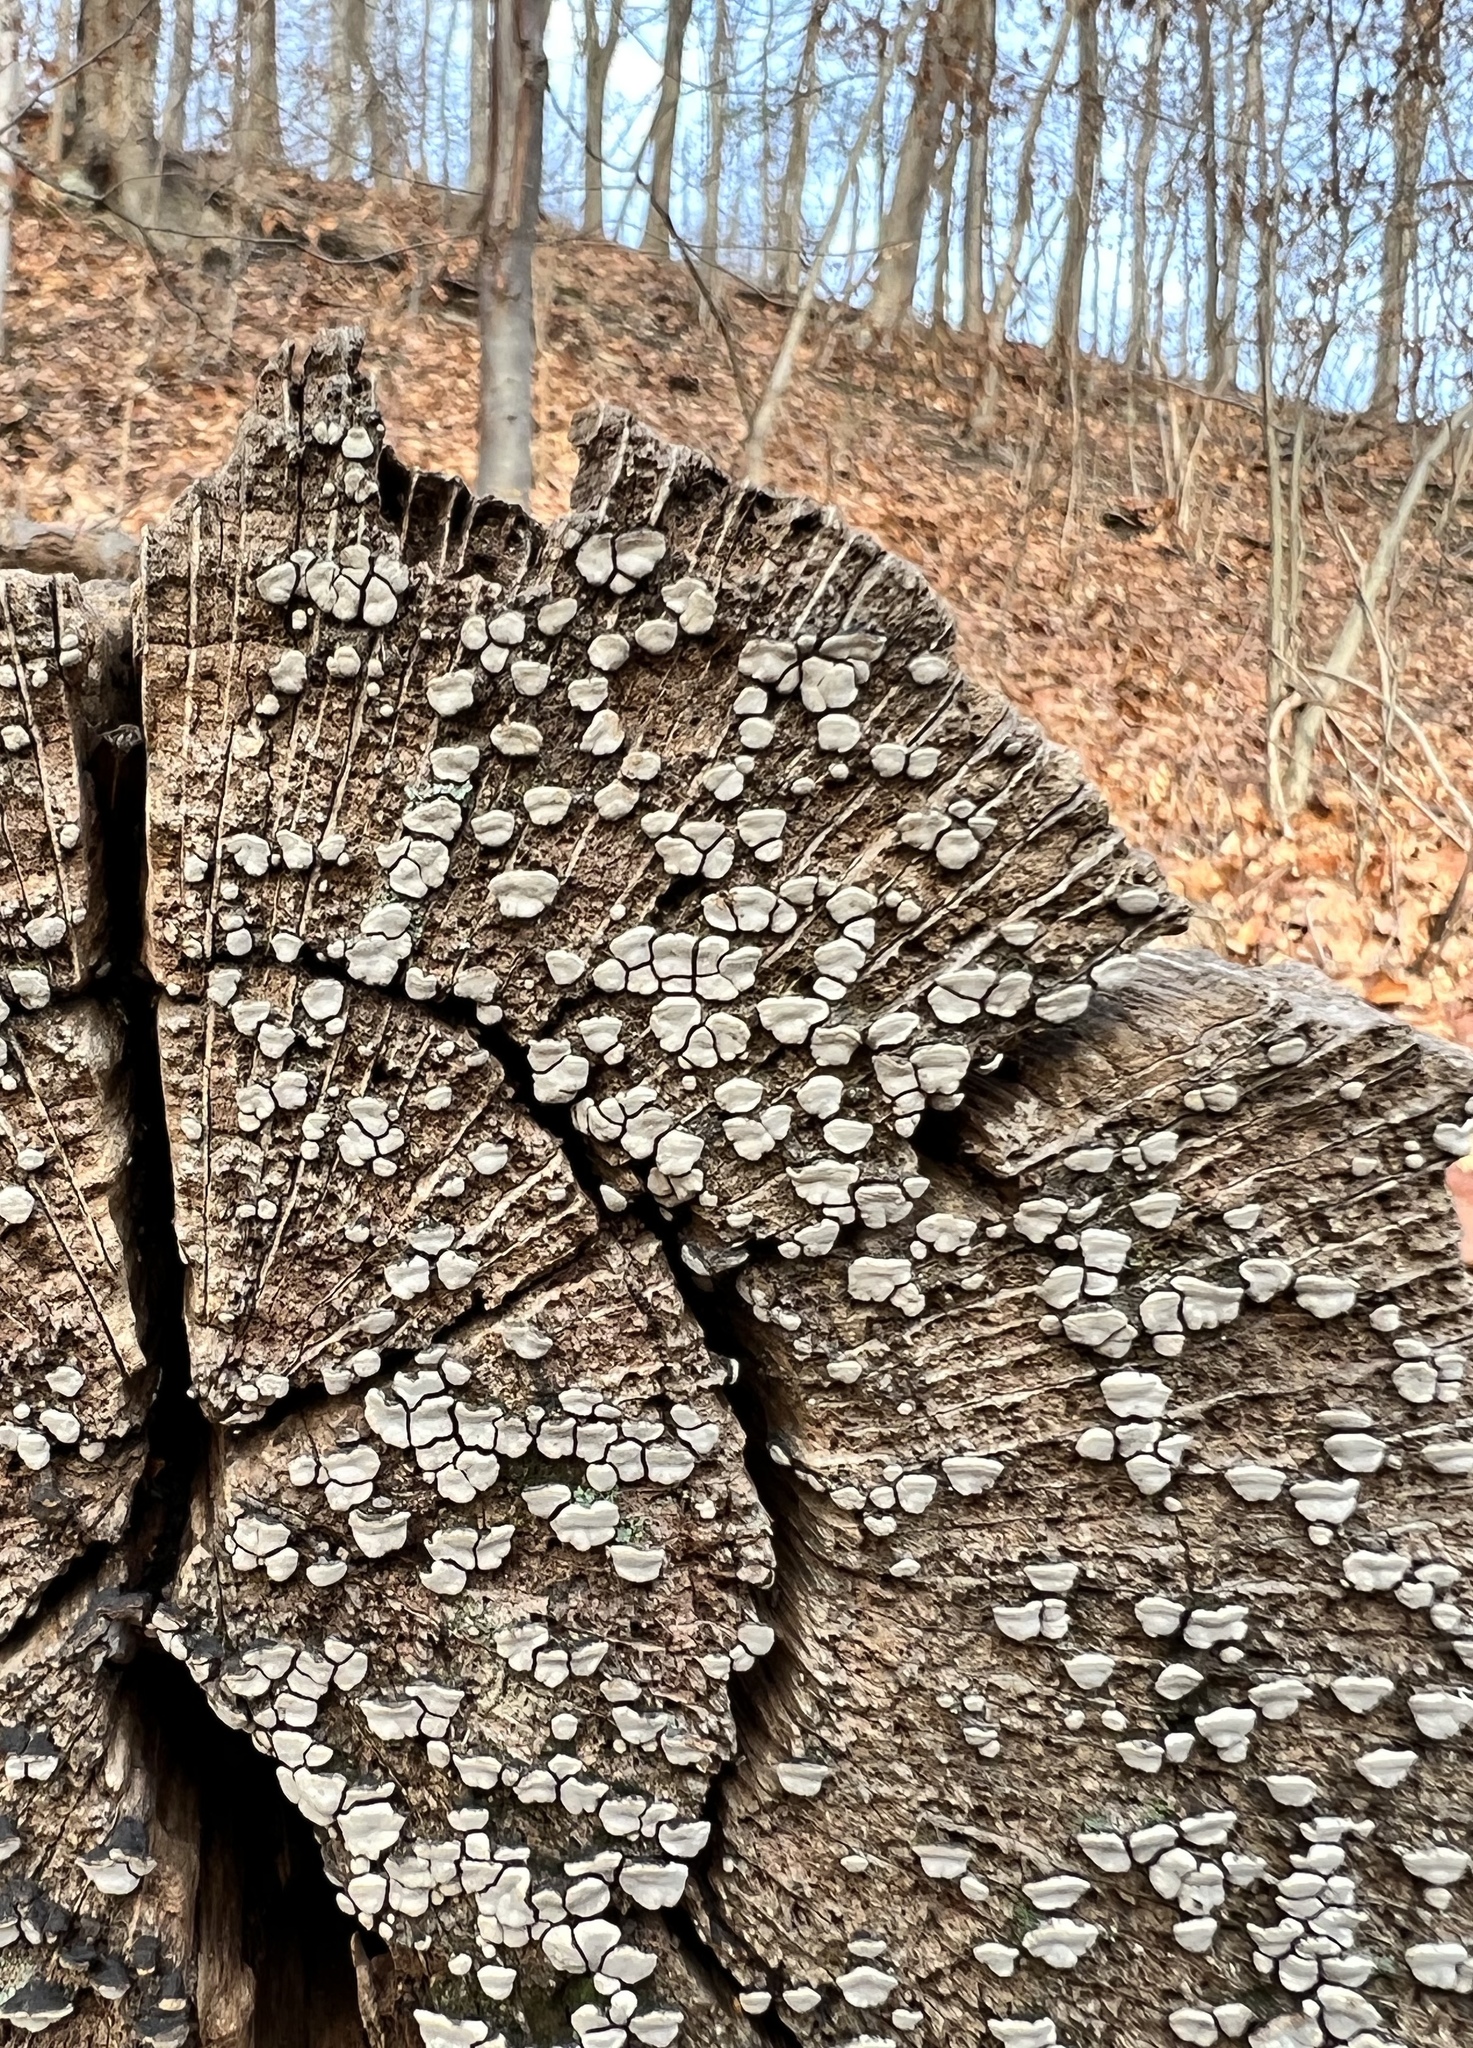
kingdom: Fungi
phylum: Basidiomycota
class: Agaricomycetes
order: Russulales
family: Stereaceae
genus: Xylobolus
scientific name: Xylobolus frustulatus
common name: Ceramic parchment
